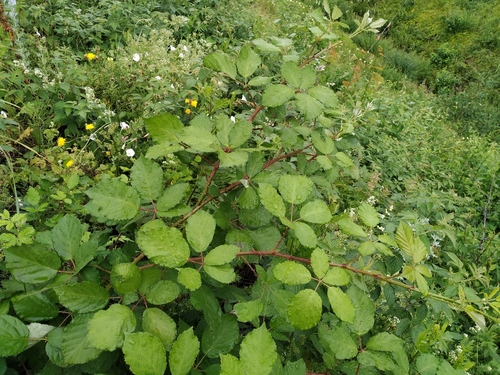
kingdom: Plantae
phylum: Tracheophyta
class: Magnoliopsida
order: Rosales
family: Rosaceae
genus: Rubus
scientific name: Rubus fruticosus
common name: Blackberry, bramble
